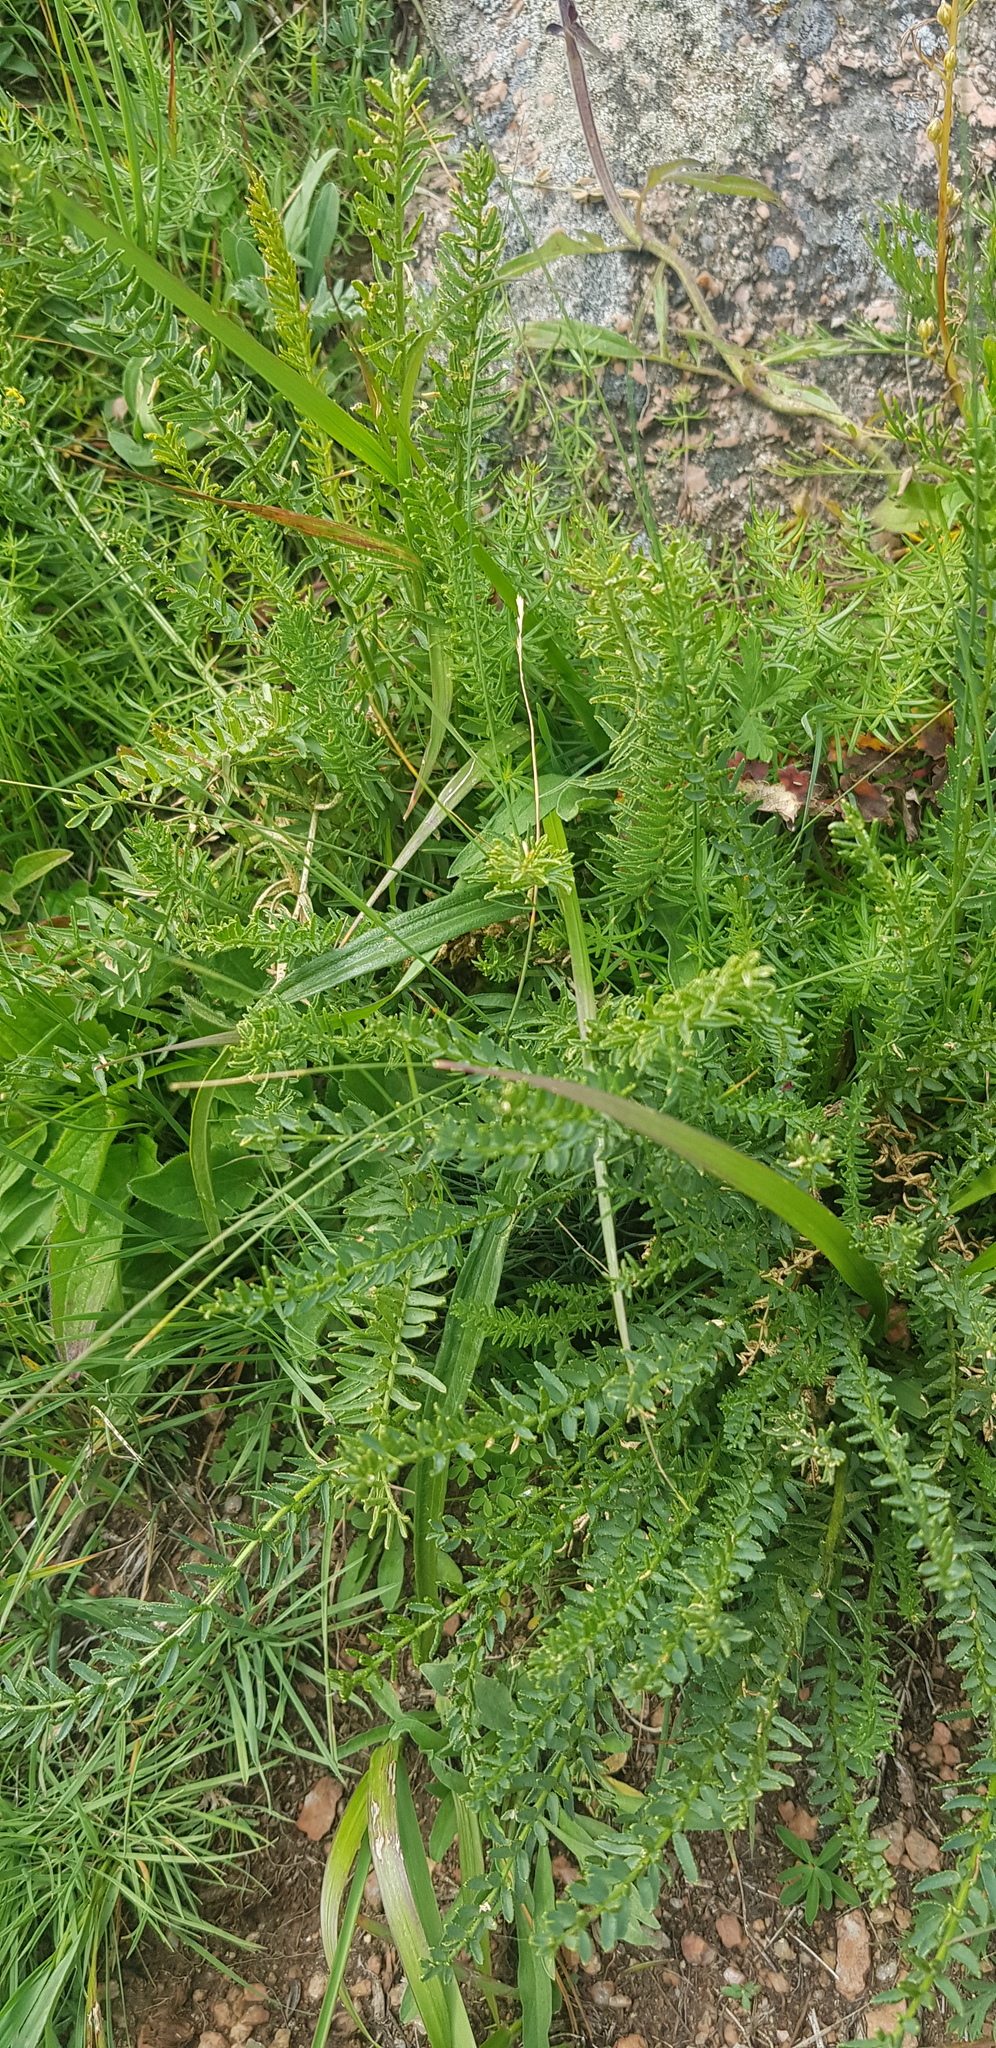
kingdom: Plantae
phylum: Tracheophyta
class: Magnoliopsida
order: Fabales
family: Fabaceae
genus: Oxytropis
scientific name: Oxytropis myriophylla
